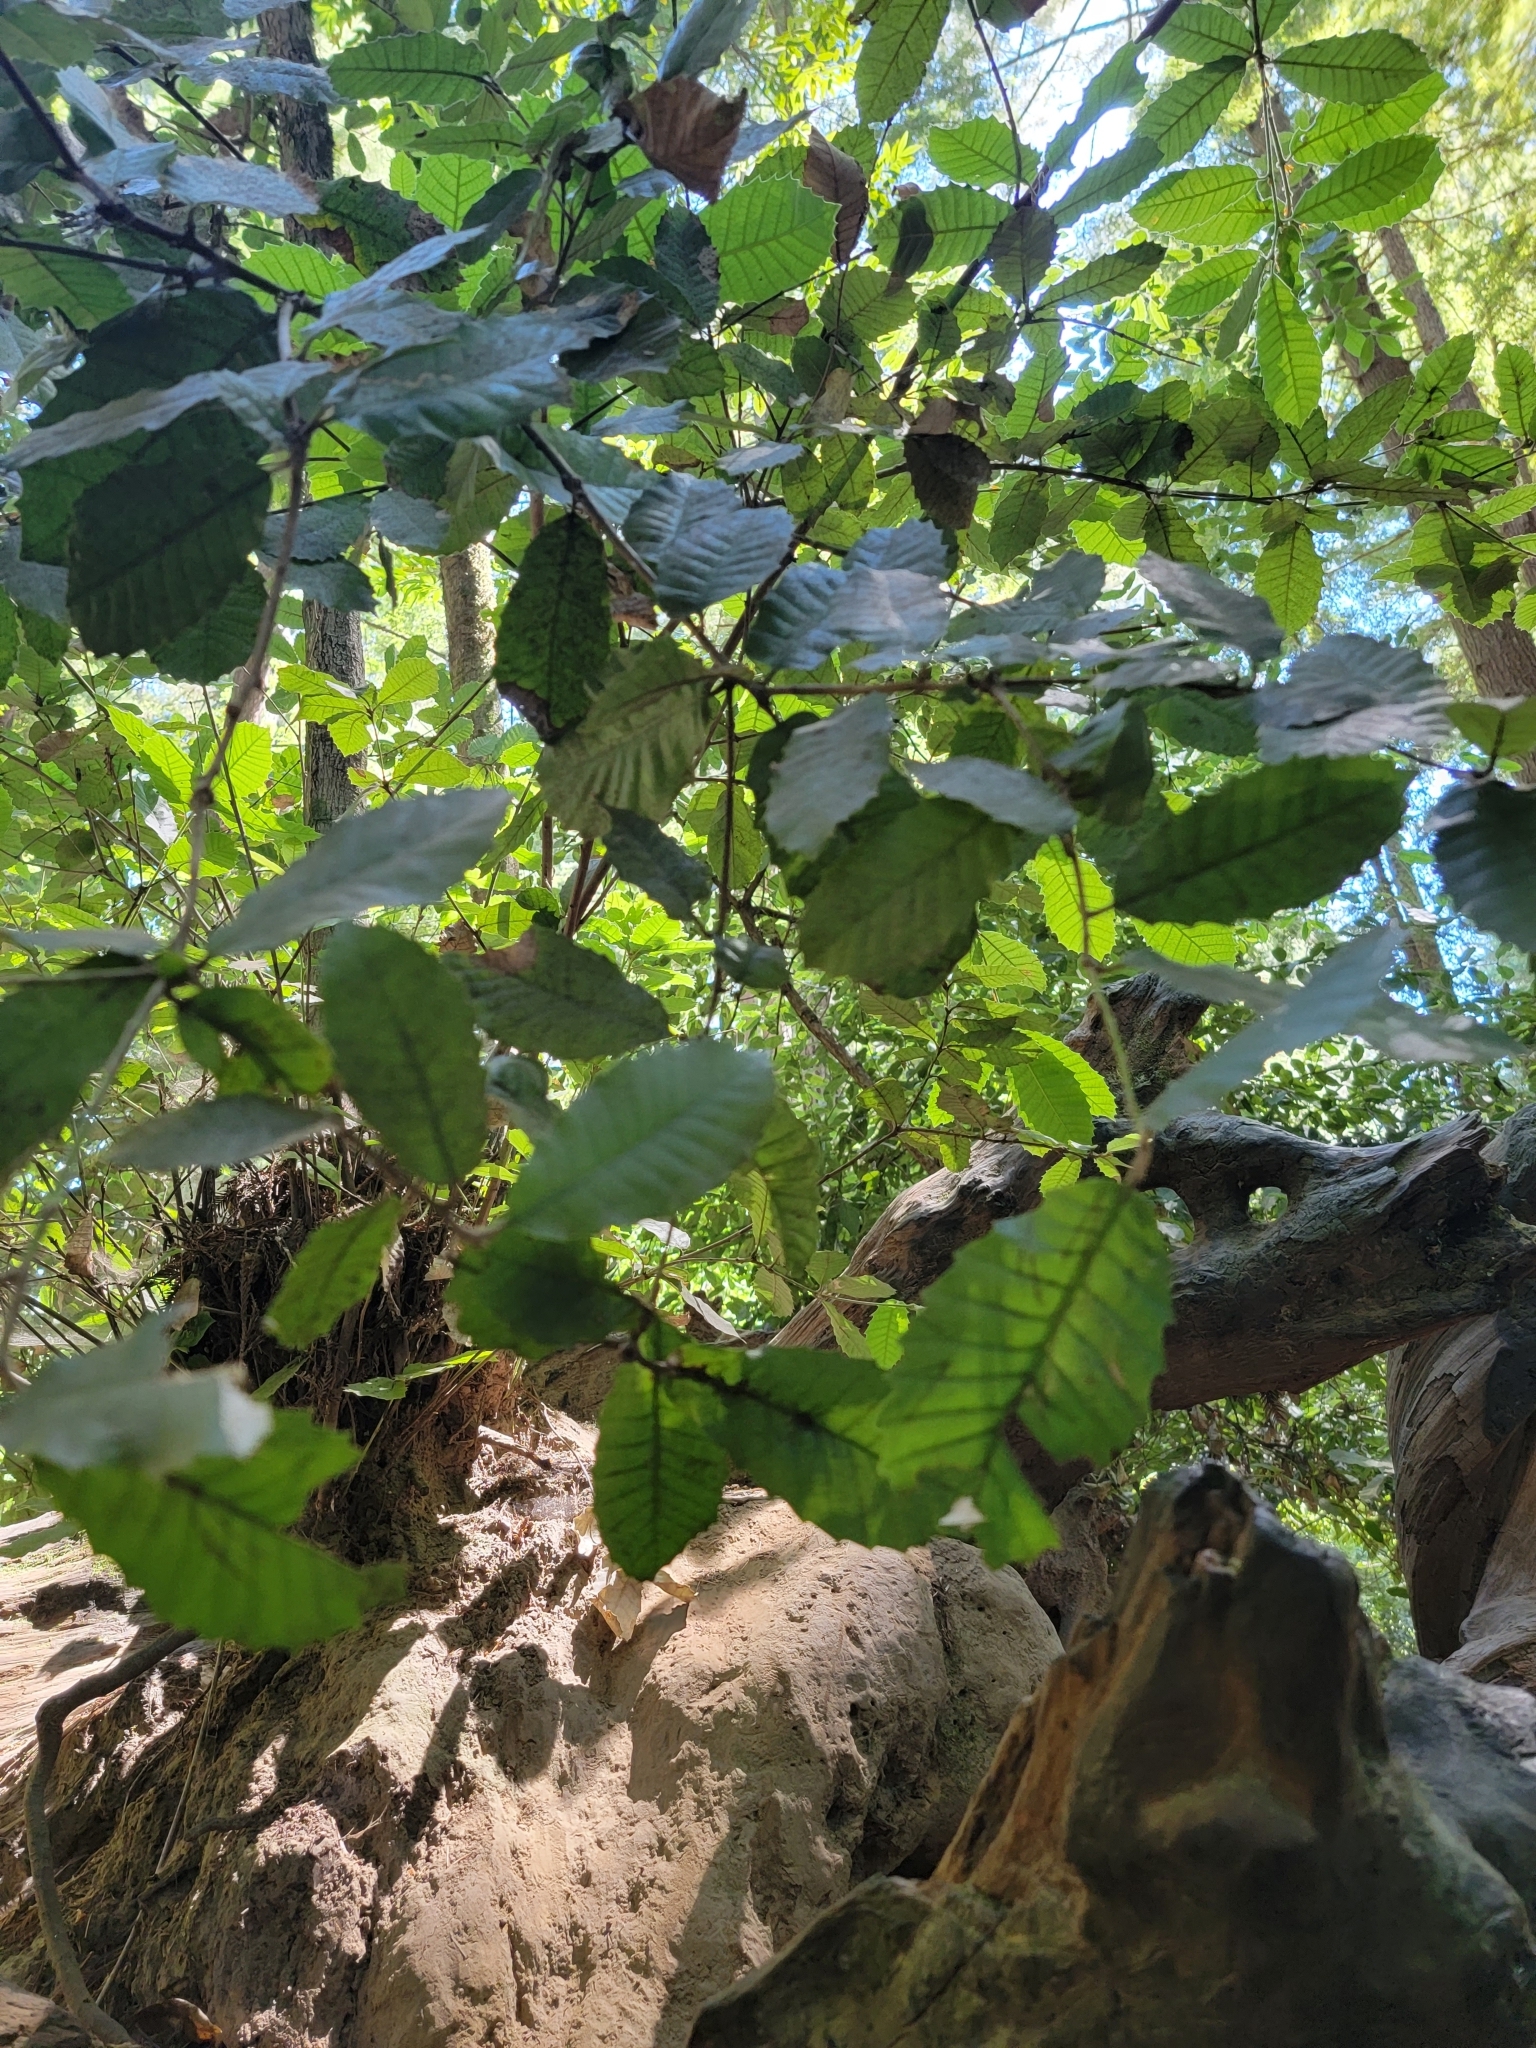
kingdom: Plantae
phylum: Tracheophyta
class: Magnoliopsida
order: Fagales
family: Fagaceae
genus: Notholithocarpus
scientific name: Notholithocarpus densiflorus
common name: Tan bark oak
